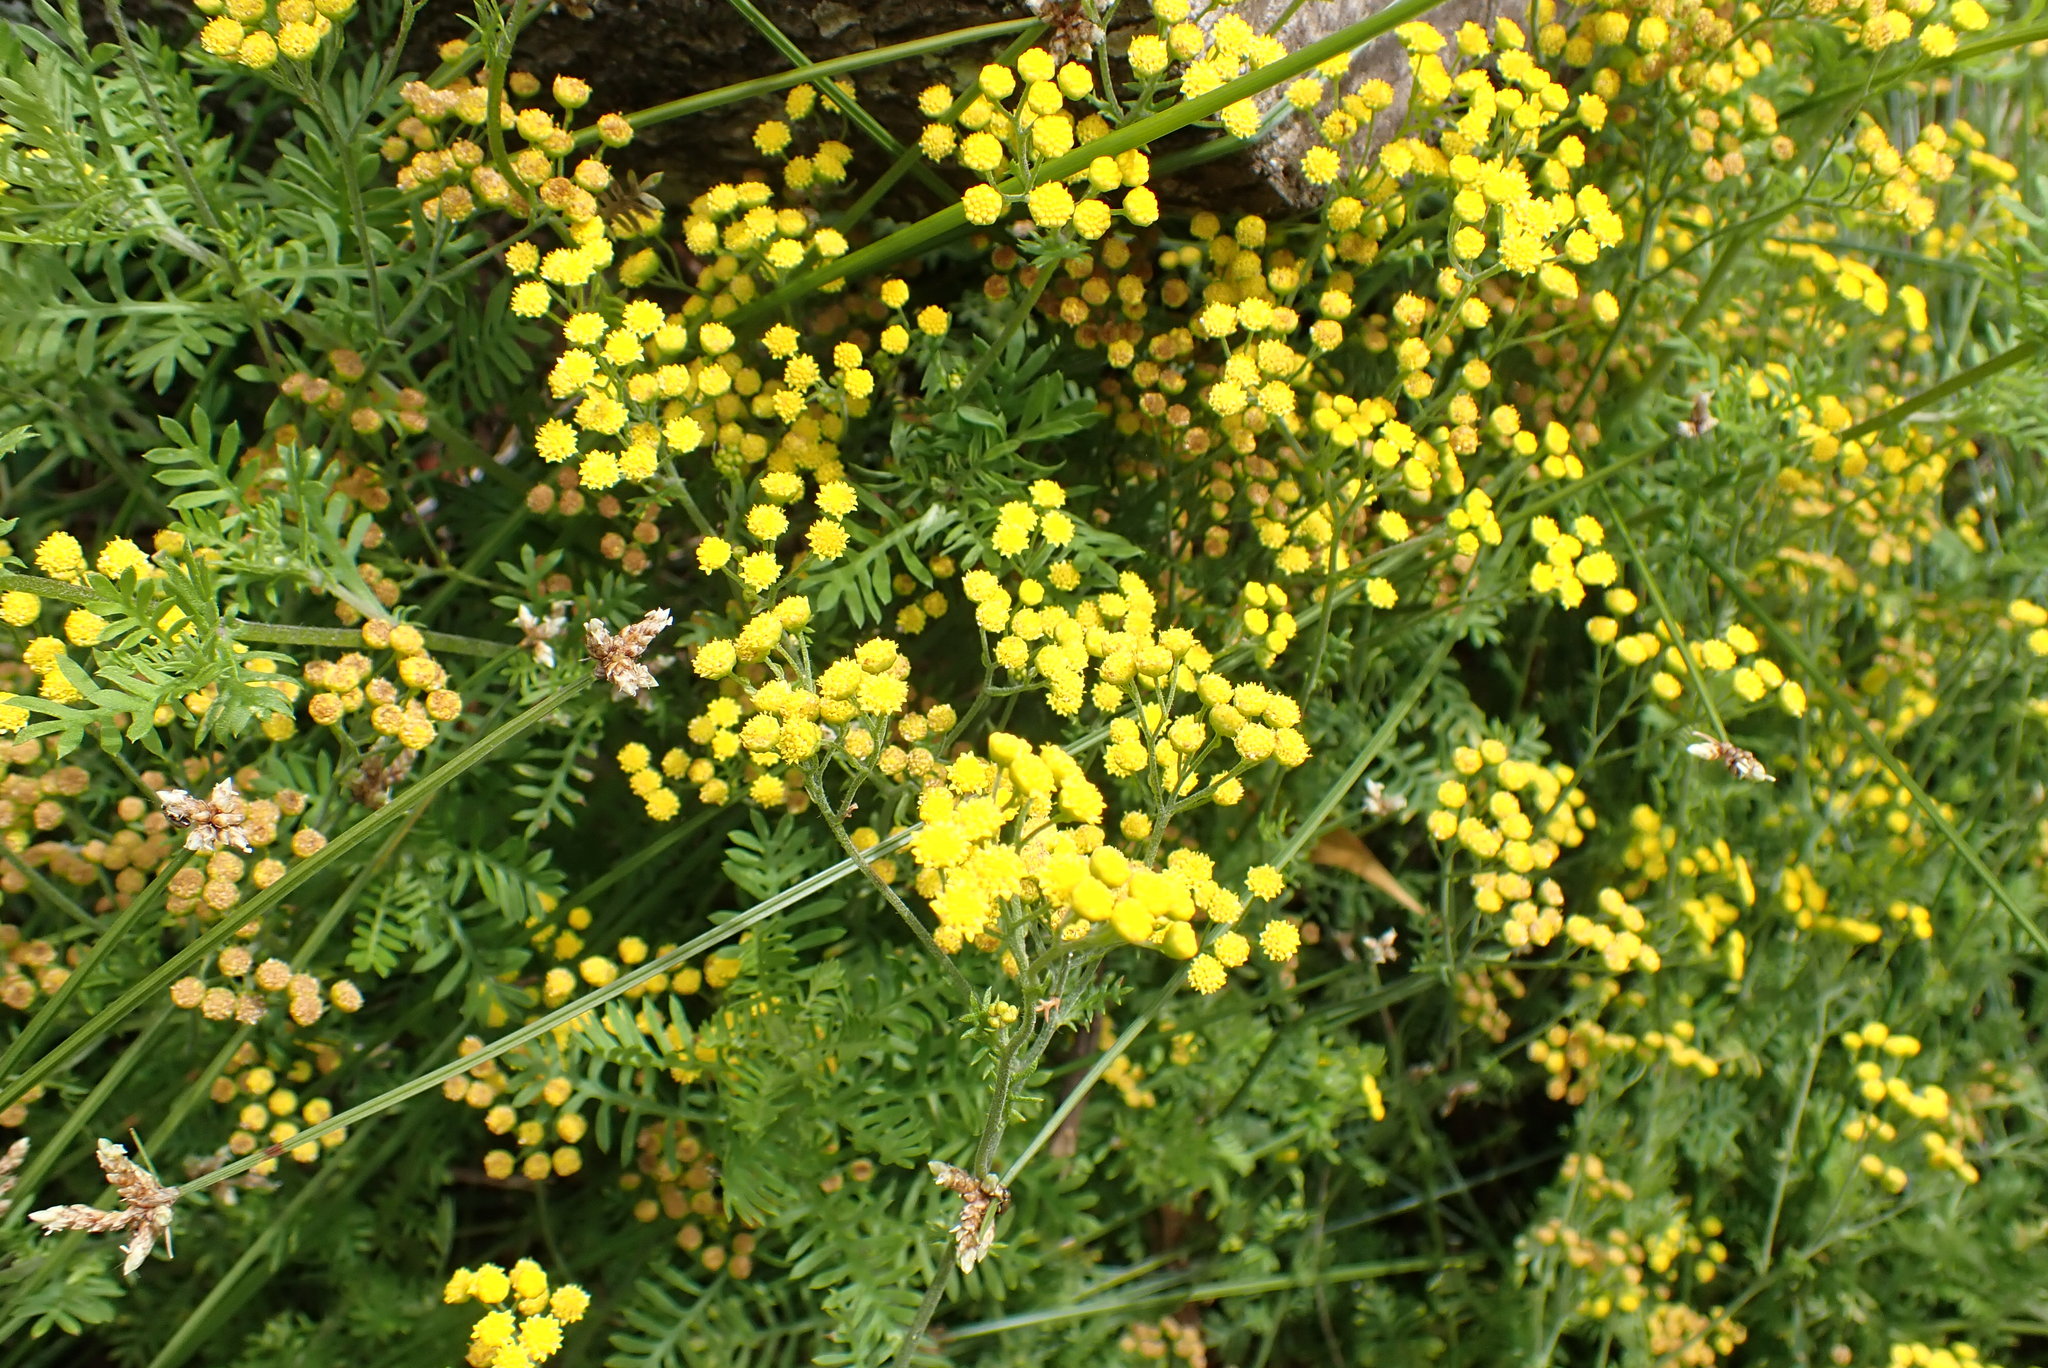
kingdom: Plantae
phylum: Tracheophyta
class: Magnoliopsida
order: Asterales
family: Asteraceae
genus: Hippia
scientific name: Hippia frutescens
